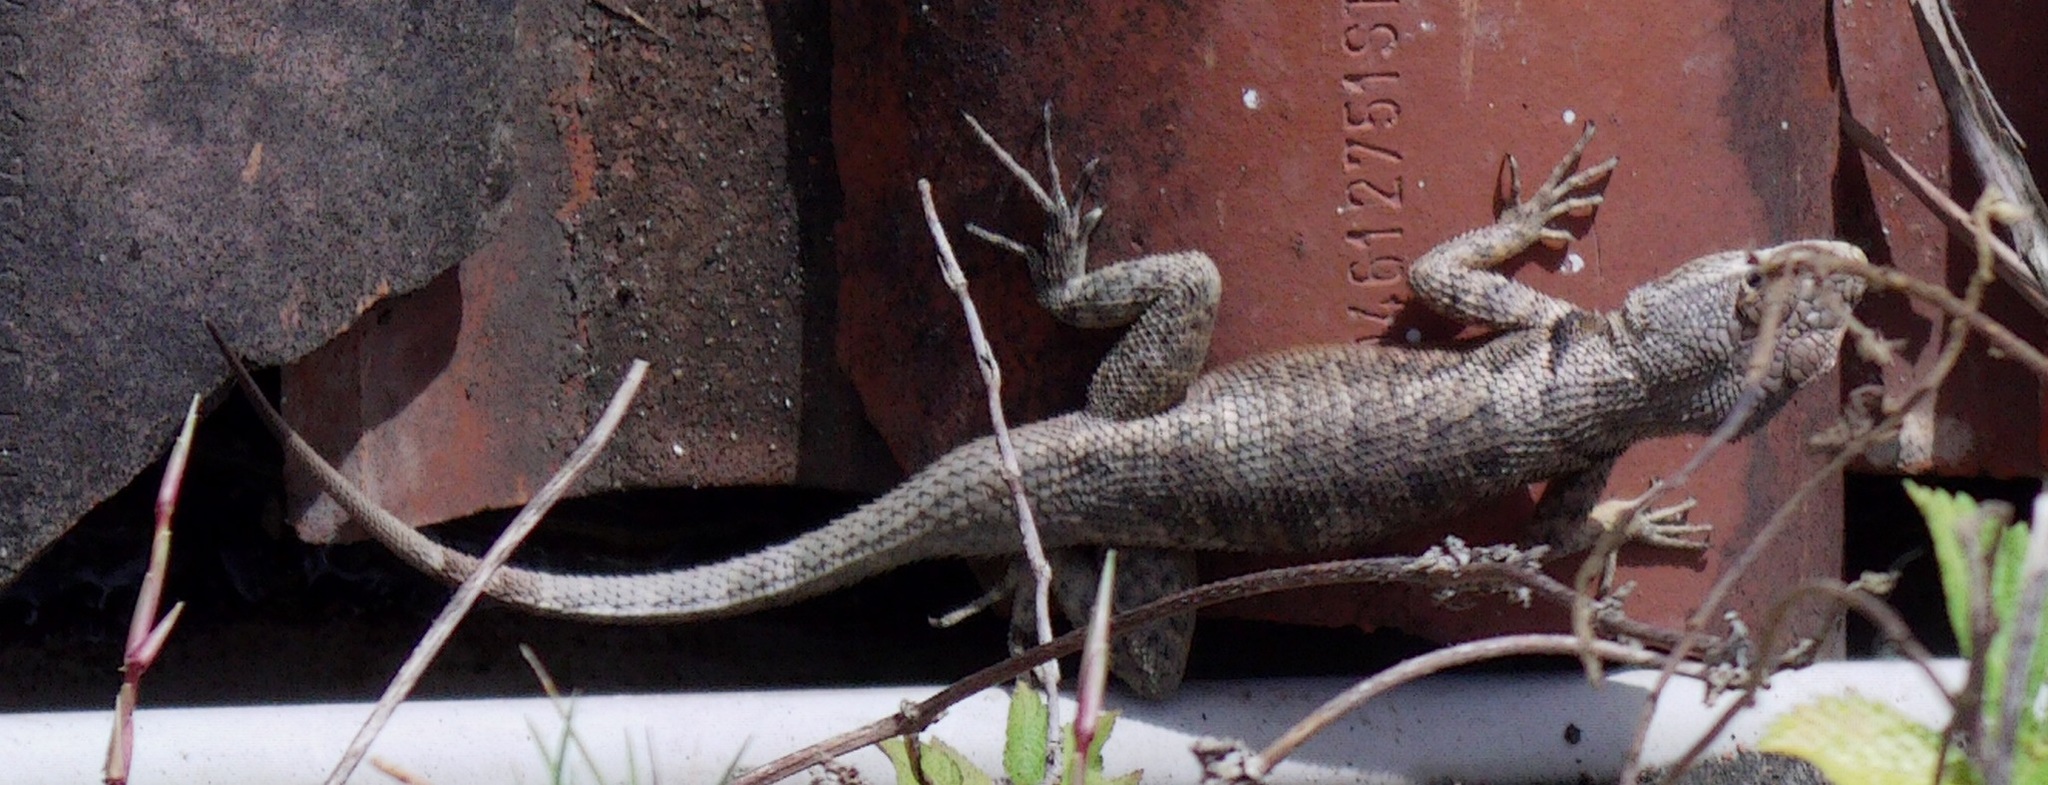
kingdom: Animalia
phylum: Chordata
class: Squamata
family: Tropiduridae
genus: Tropidurus
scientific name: Tropidurus hispidus
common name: Peters' lava lizard
